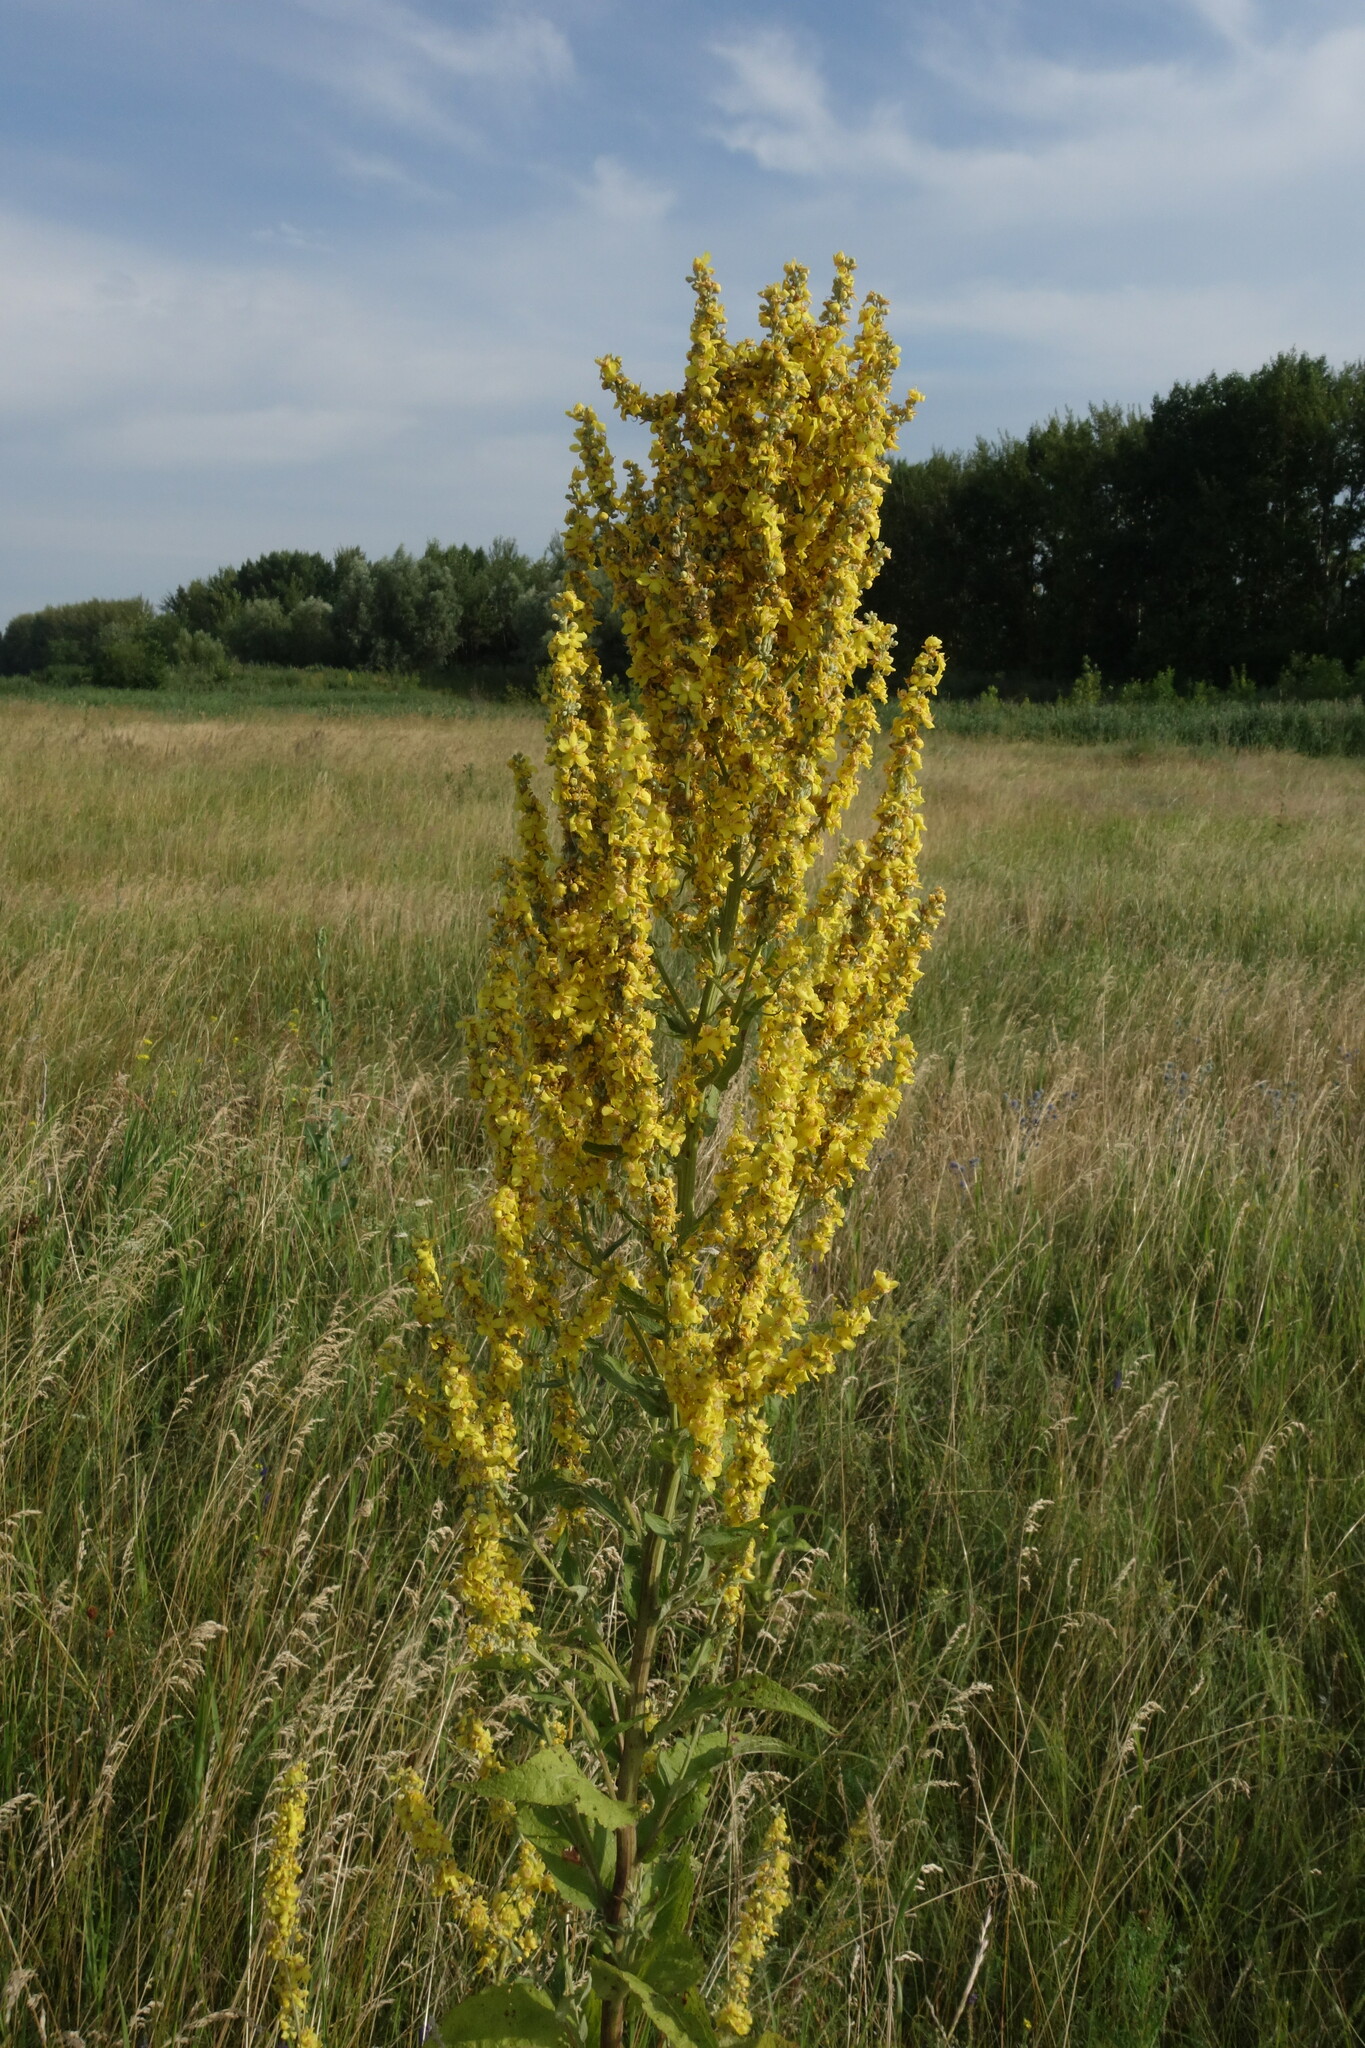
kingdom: Plantae
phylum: Tracheophyta
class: Magnoliopsida
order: Lamiales
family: Scrophulariaceae
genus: Verbascum
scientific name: Verbascum lychnitis
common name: White mullein
